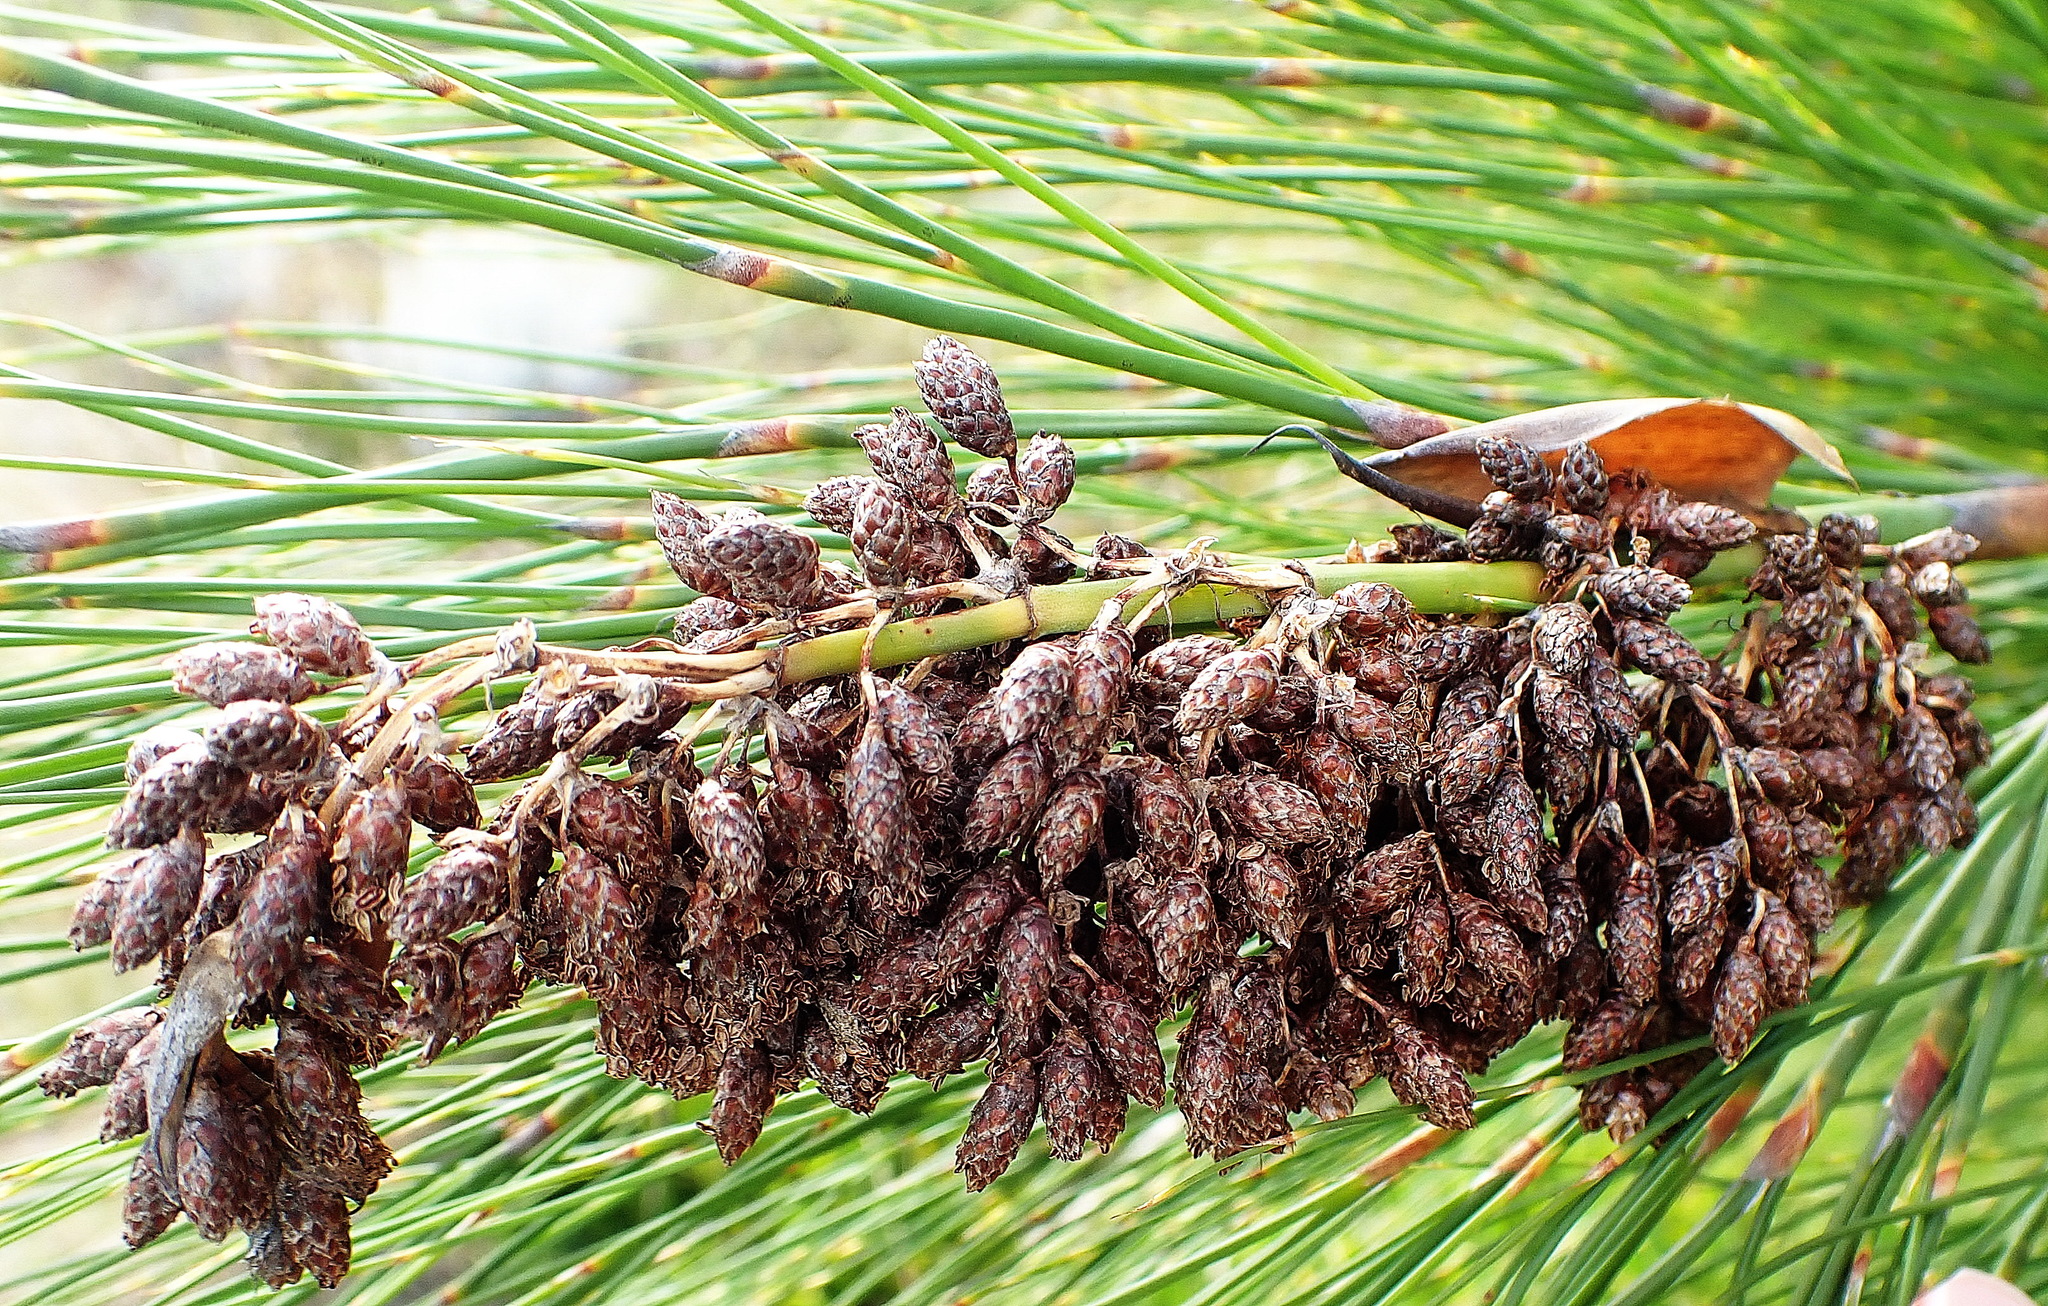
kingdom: Plantae
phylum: Tracheophyta
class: Liliopsida
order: Poales
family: Restionaceae
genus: Cannomois
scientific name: Cannomois grandis
